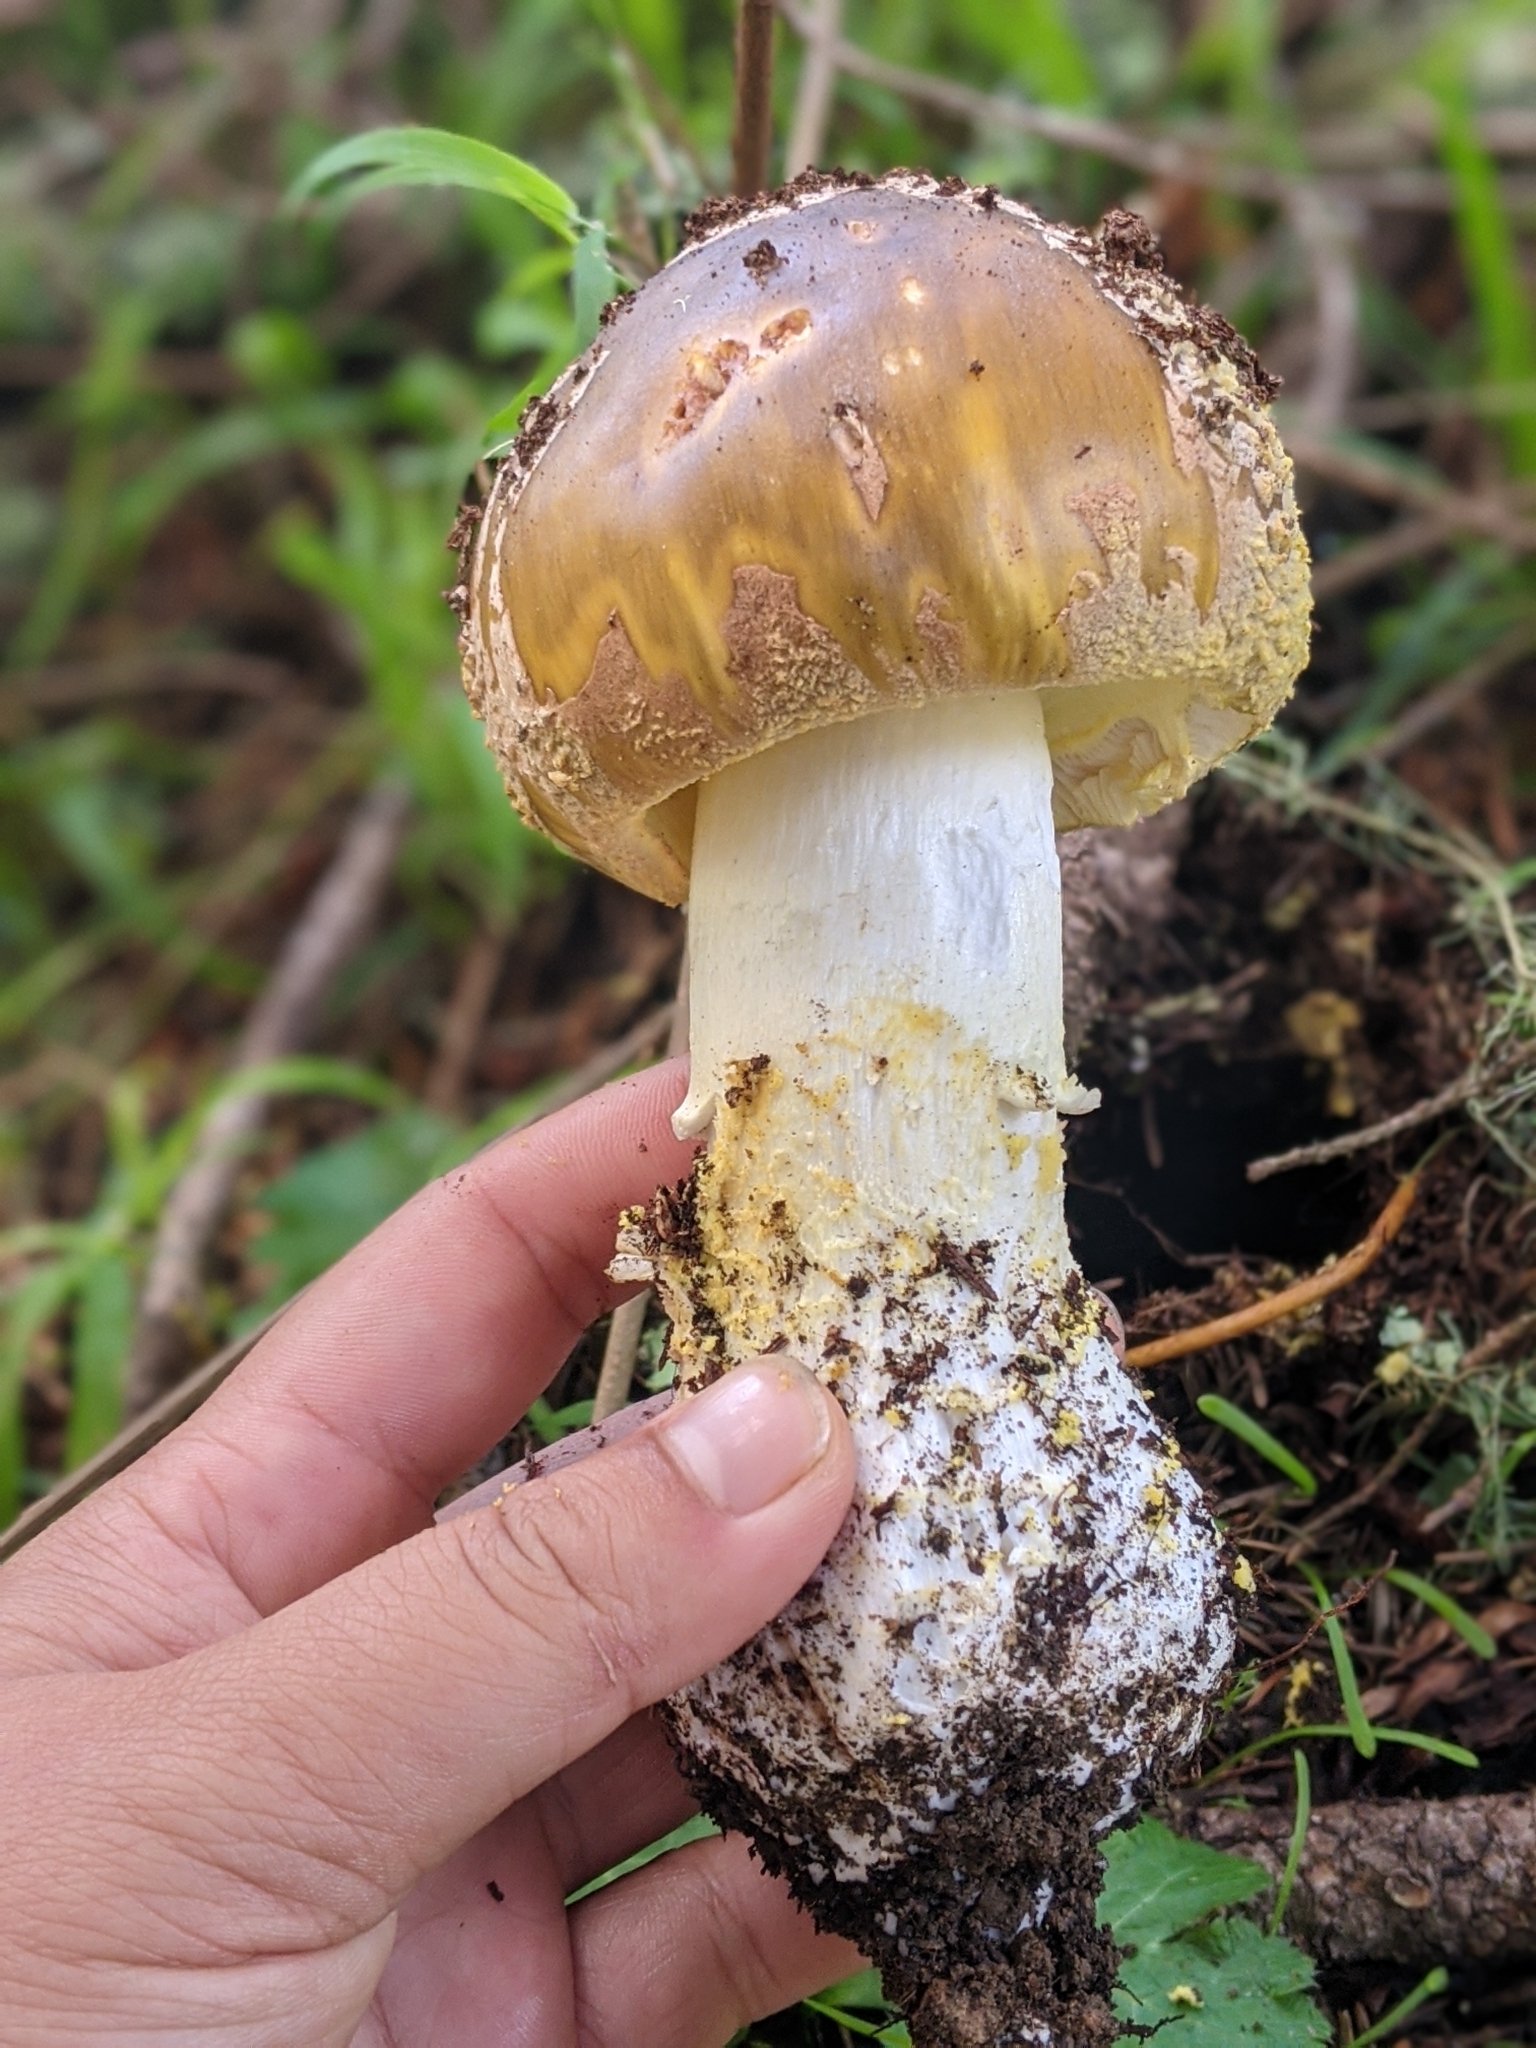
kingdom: Fungi
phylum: Basidiomycota
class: Agaricomycetes
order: Agaricales
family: Amanitaceae
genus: Amanita
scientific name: Amanita augusta
